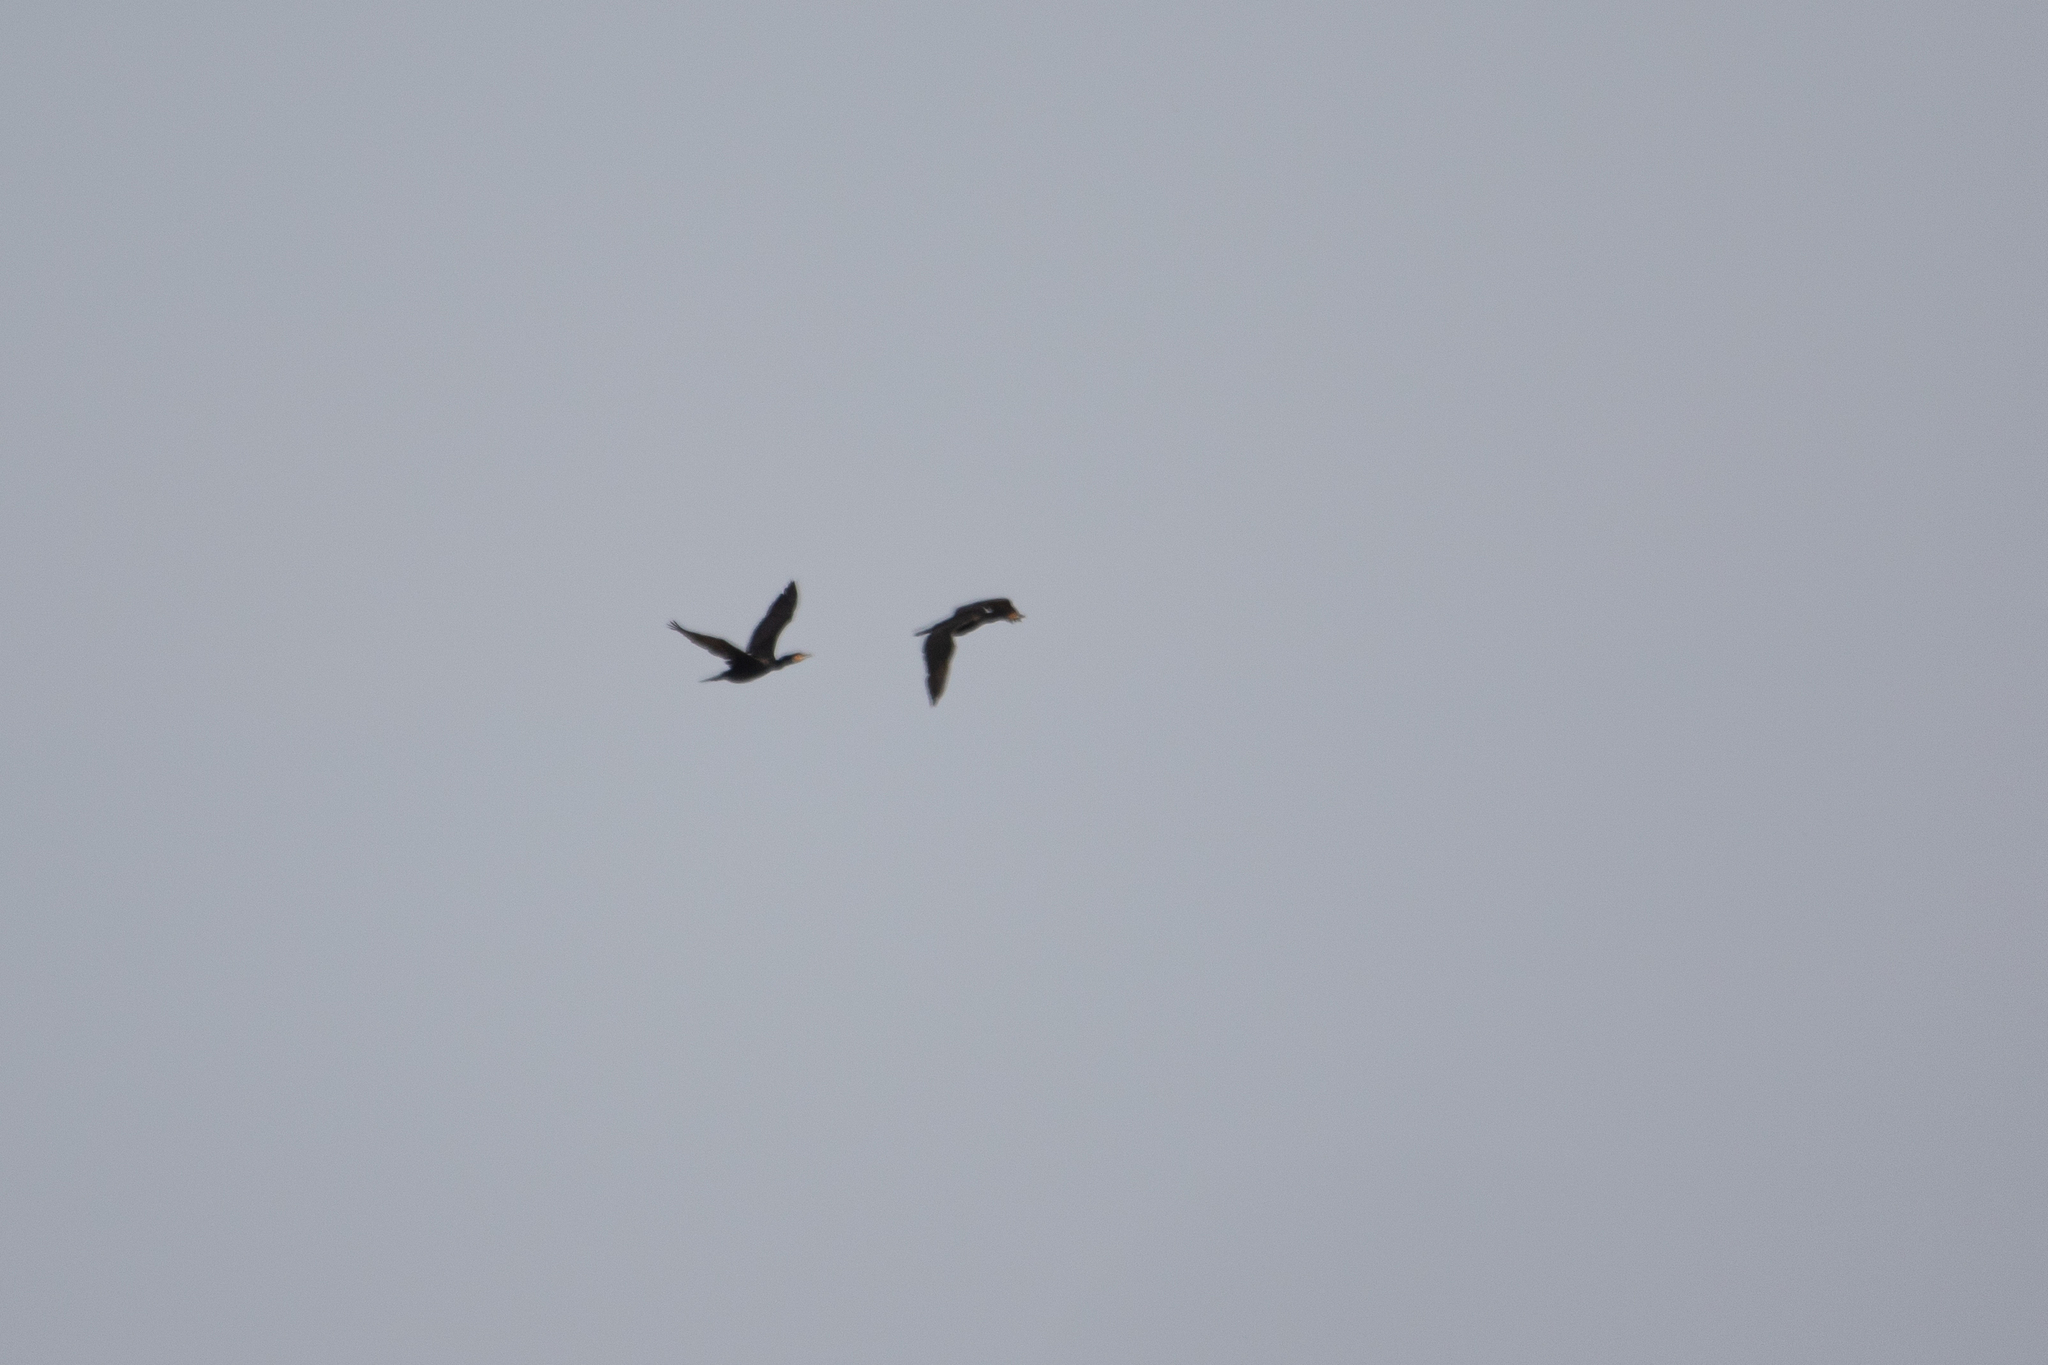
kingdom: Animalia
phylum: Chordata
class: Aves
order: Suliformes
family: Phalacrocoracidae
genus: Phalacrocorax
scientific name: Phalacrocorax carbo
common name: Great cormorant
